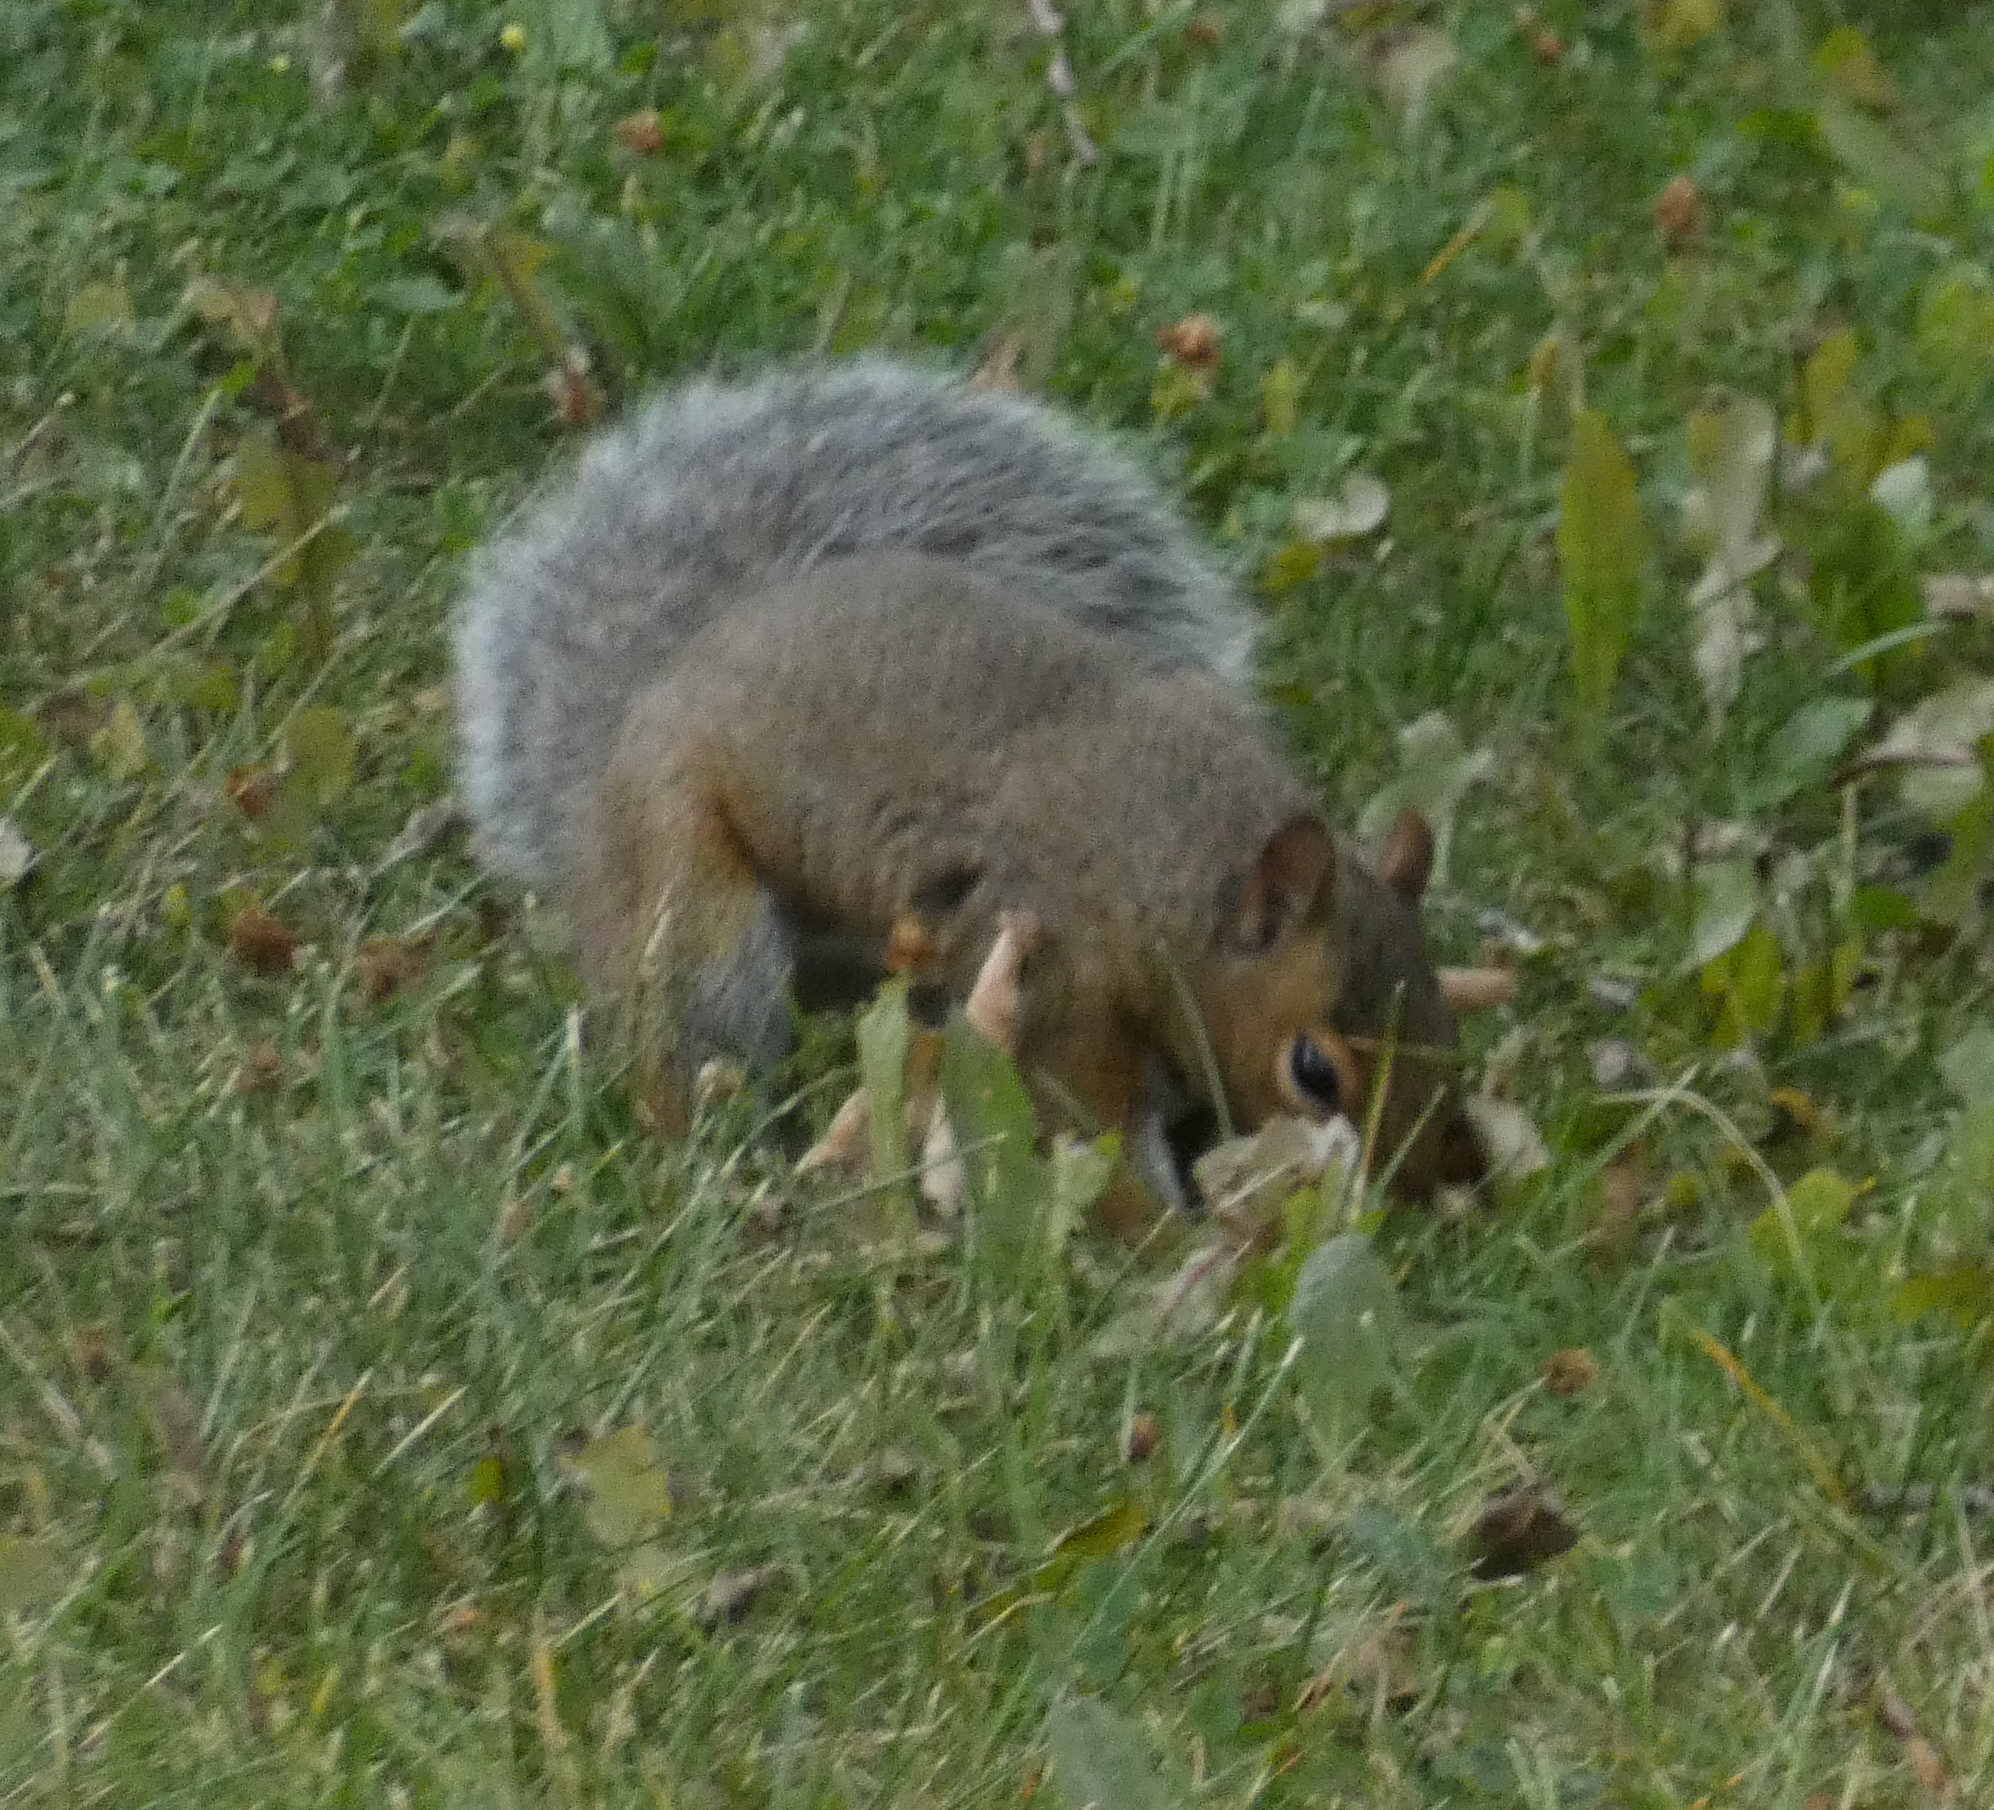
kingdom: Animalia
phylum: Chordata
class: Mammalia
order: Rodentia
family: Sciuridae
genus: Sciurus
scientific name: Sciurus carolinensis
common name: Eastern gray squirrel
